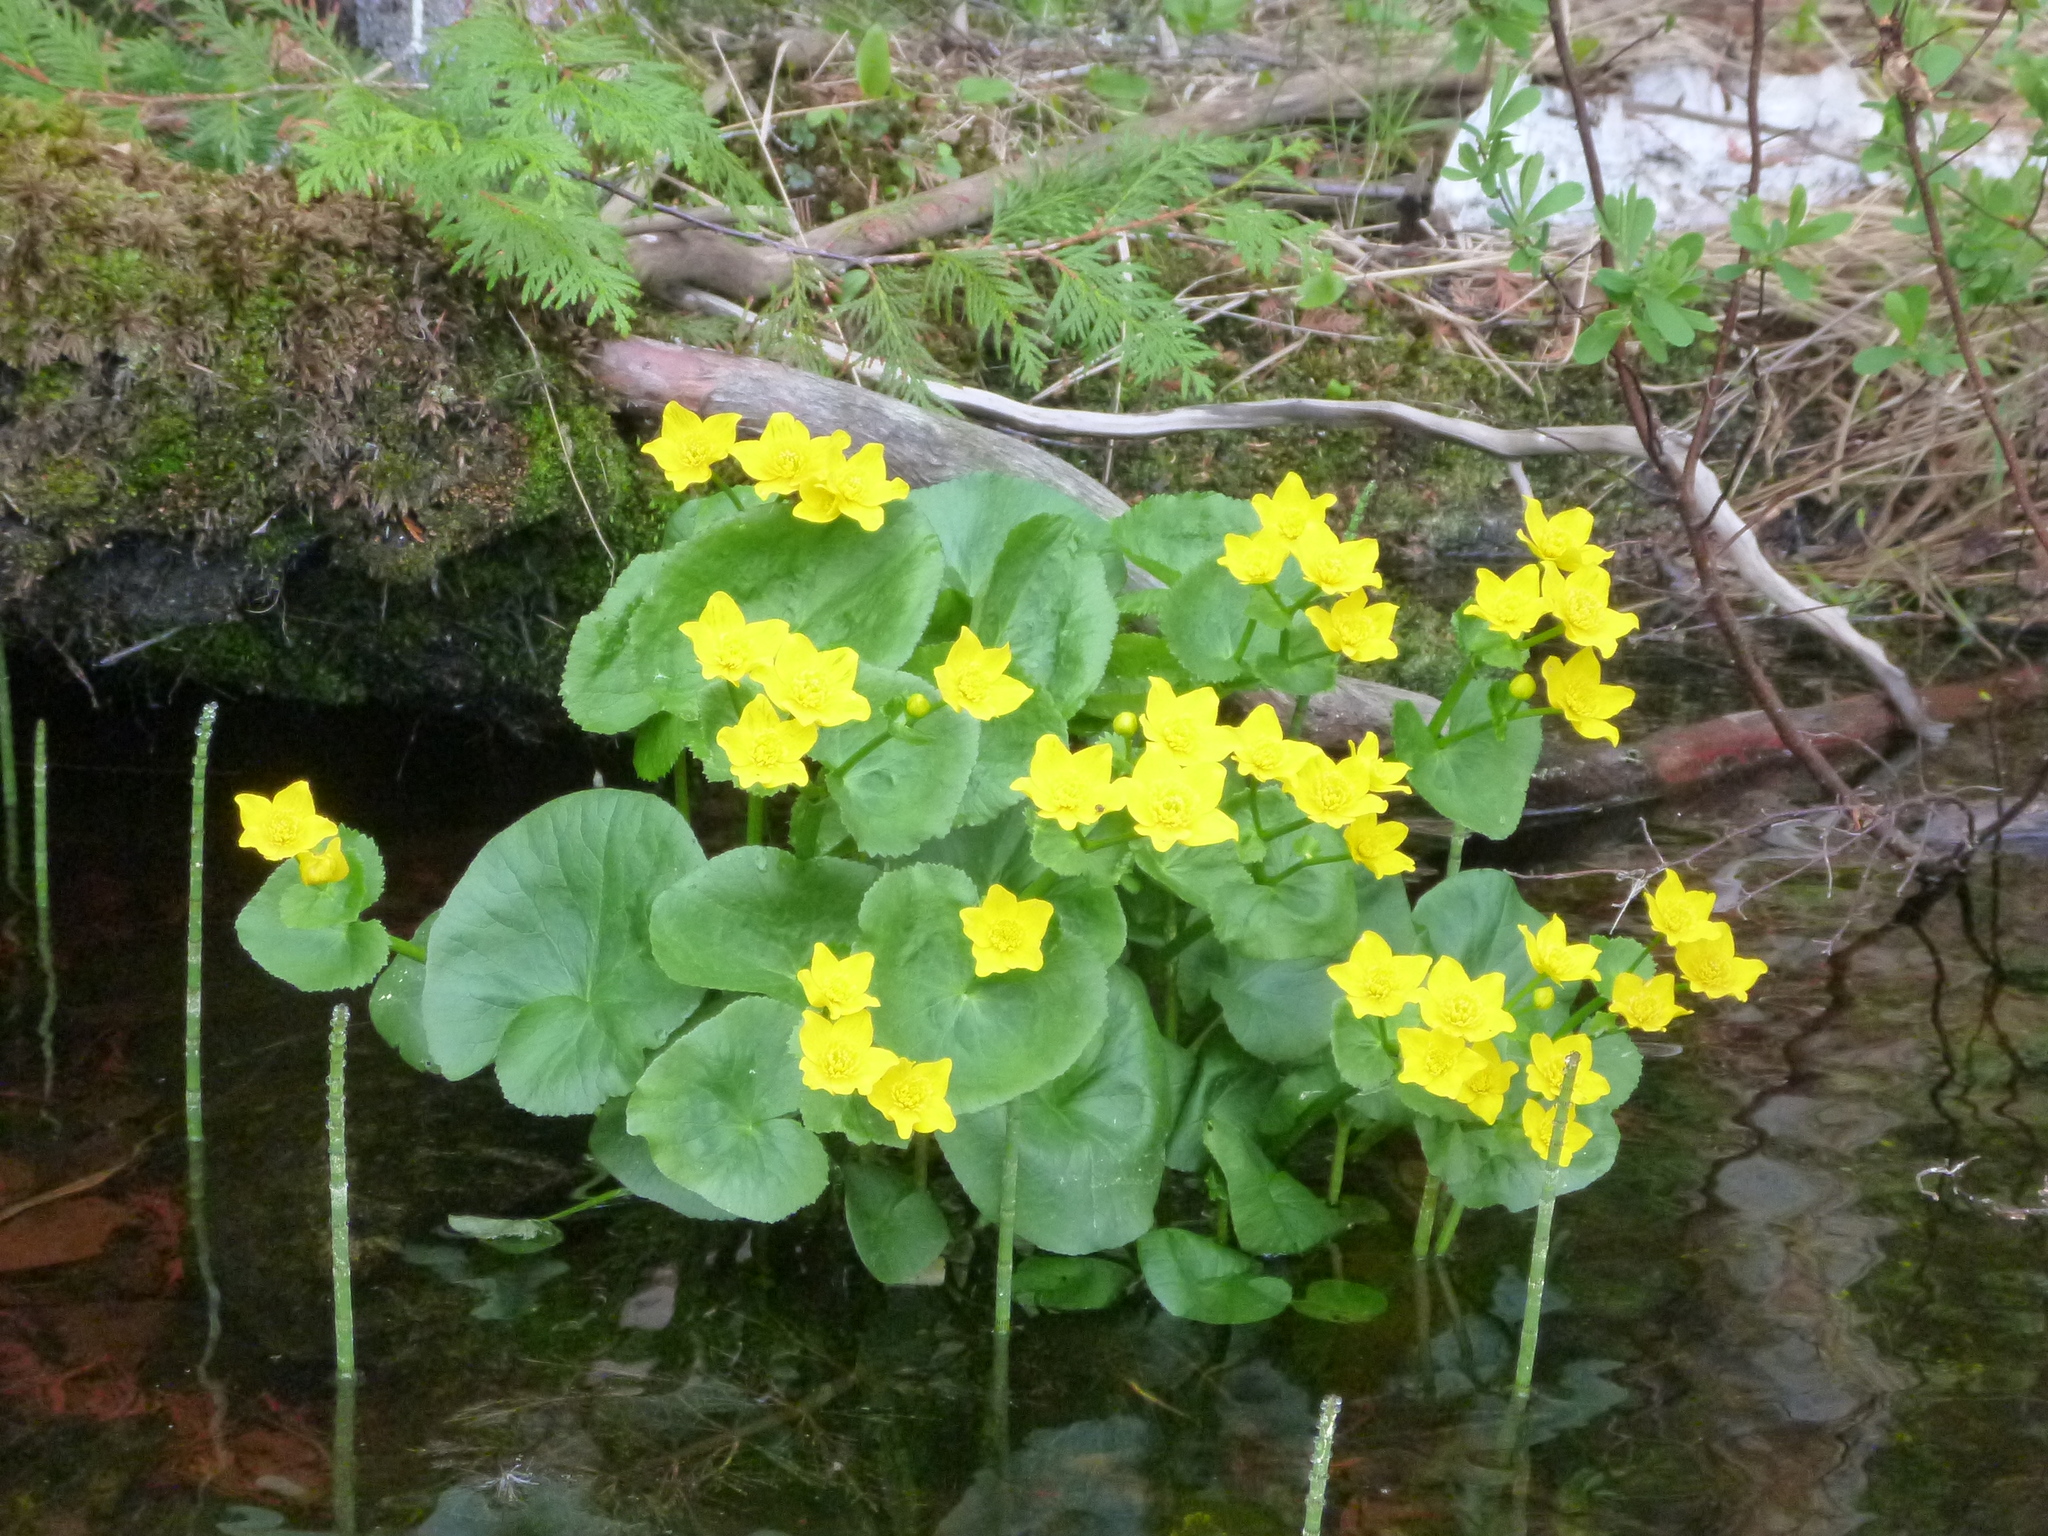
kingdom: Plantae
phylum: Tracheophyta
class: Magnoliopsida
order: Ranunculales
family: Ranunculaceae
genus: Caltha
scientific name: Caltha palustris
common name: Marsh marigold
